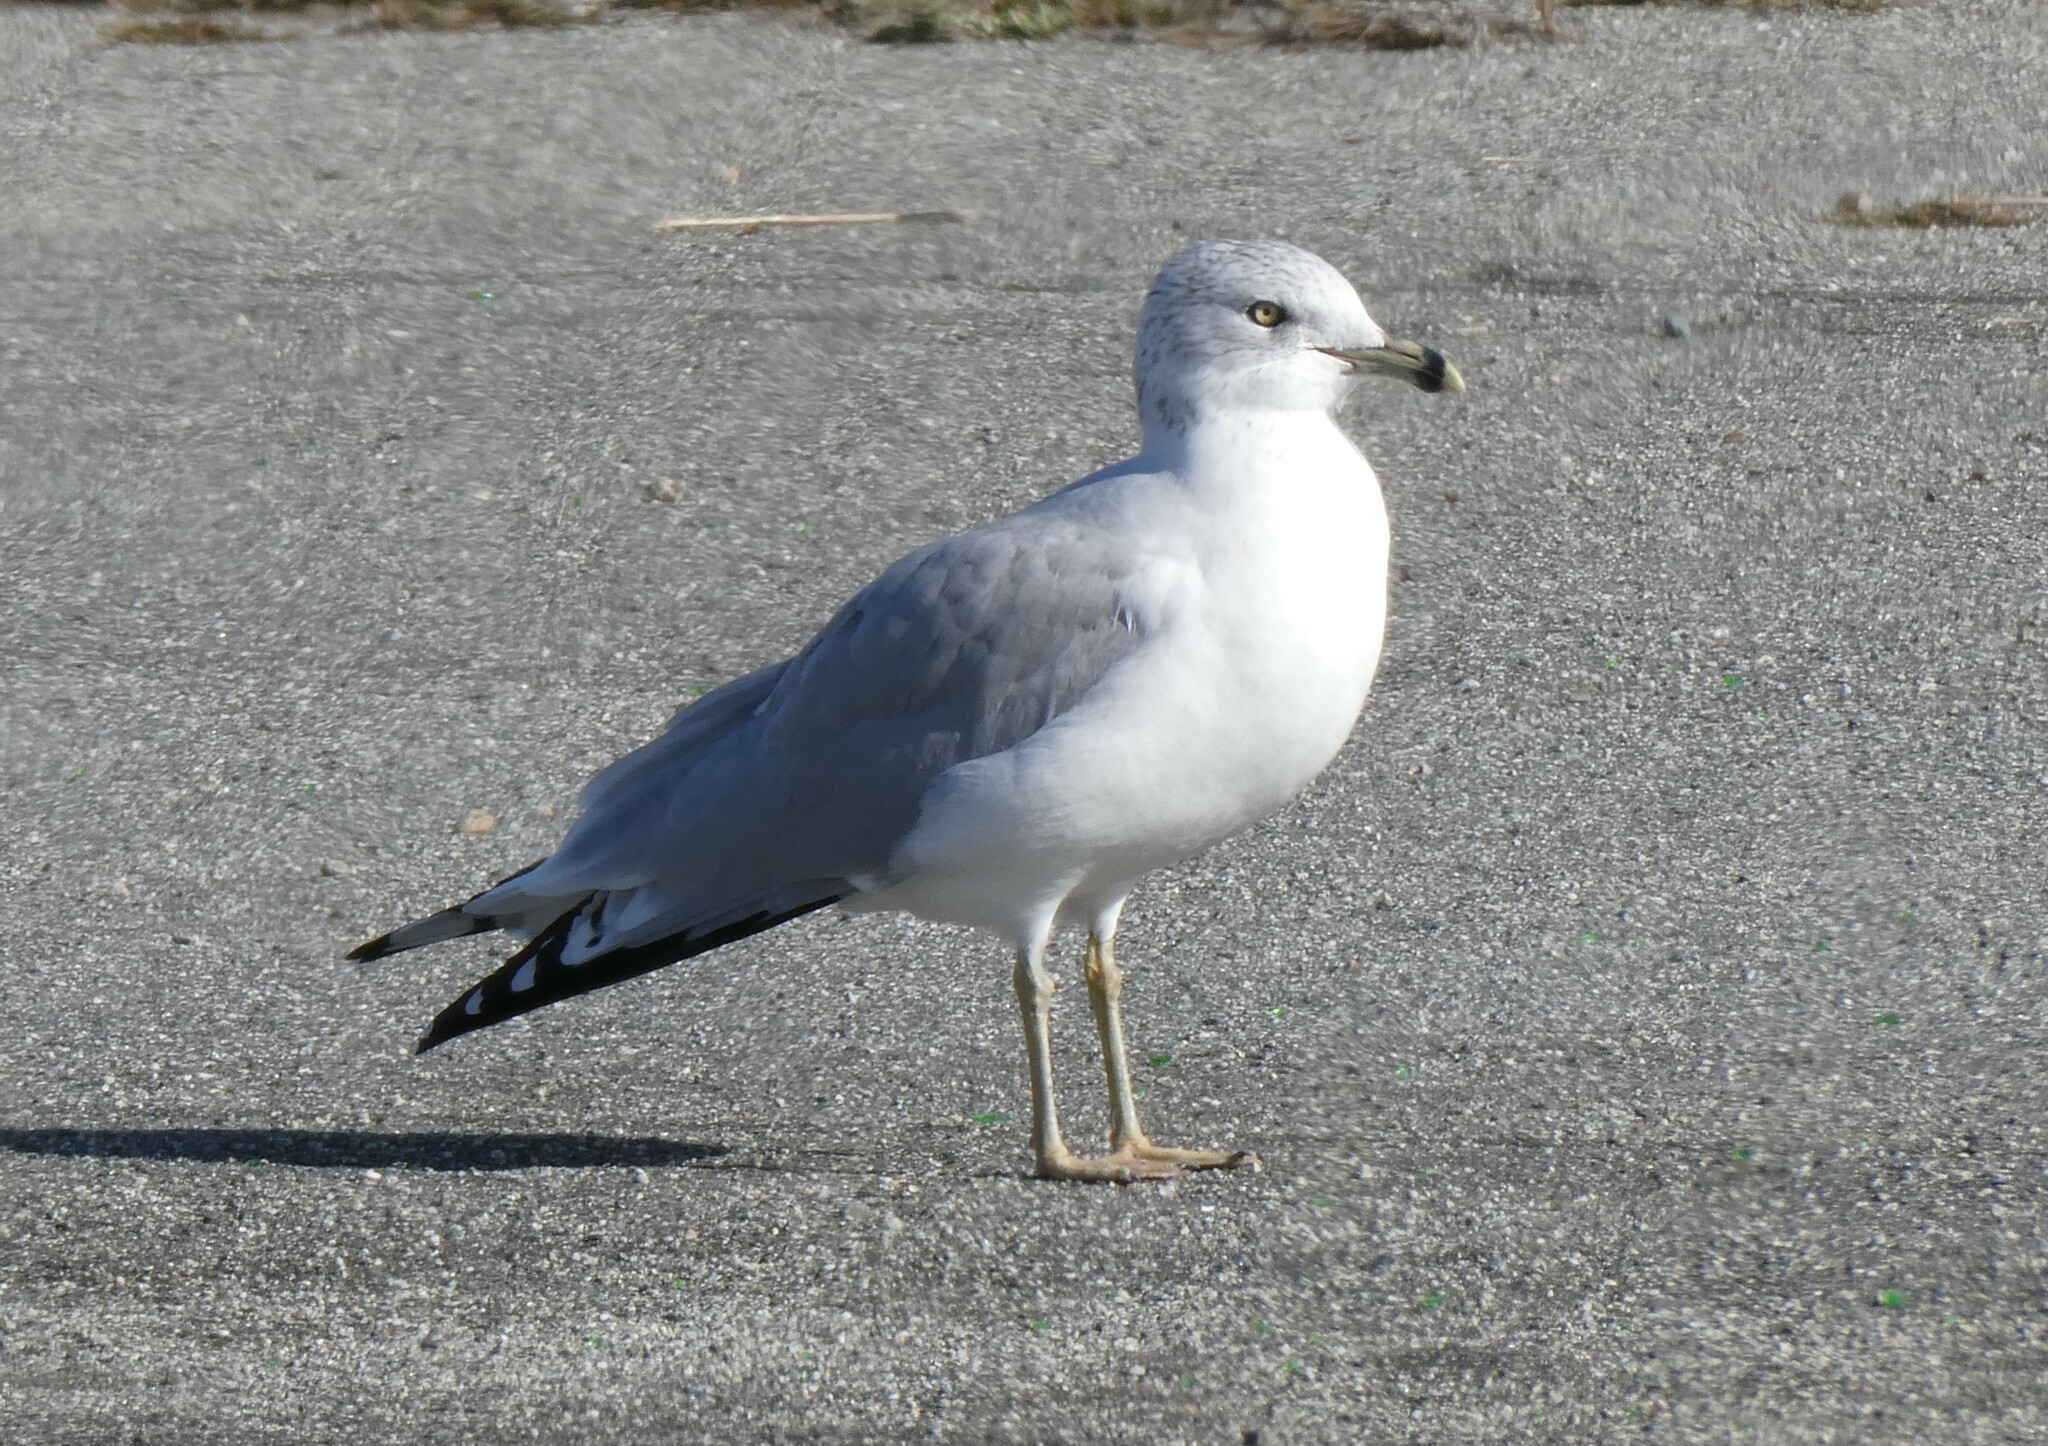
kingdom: Animalia
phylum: Chordata
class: Aves
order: Charadriiformes
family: Laridae
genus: Larus
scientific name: Larus delawarensis
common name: Ring-billed gull
